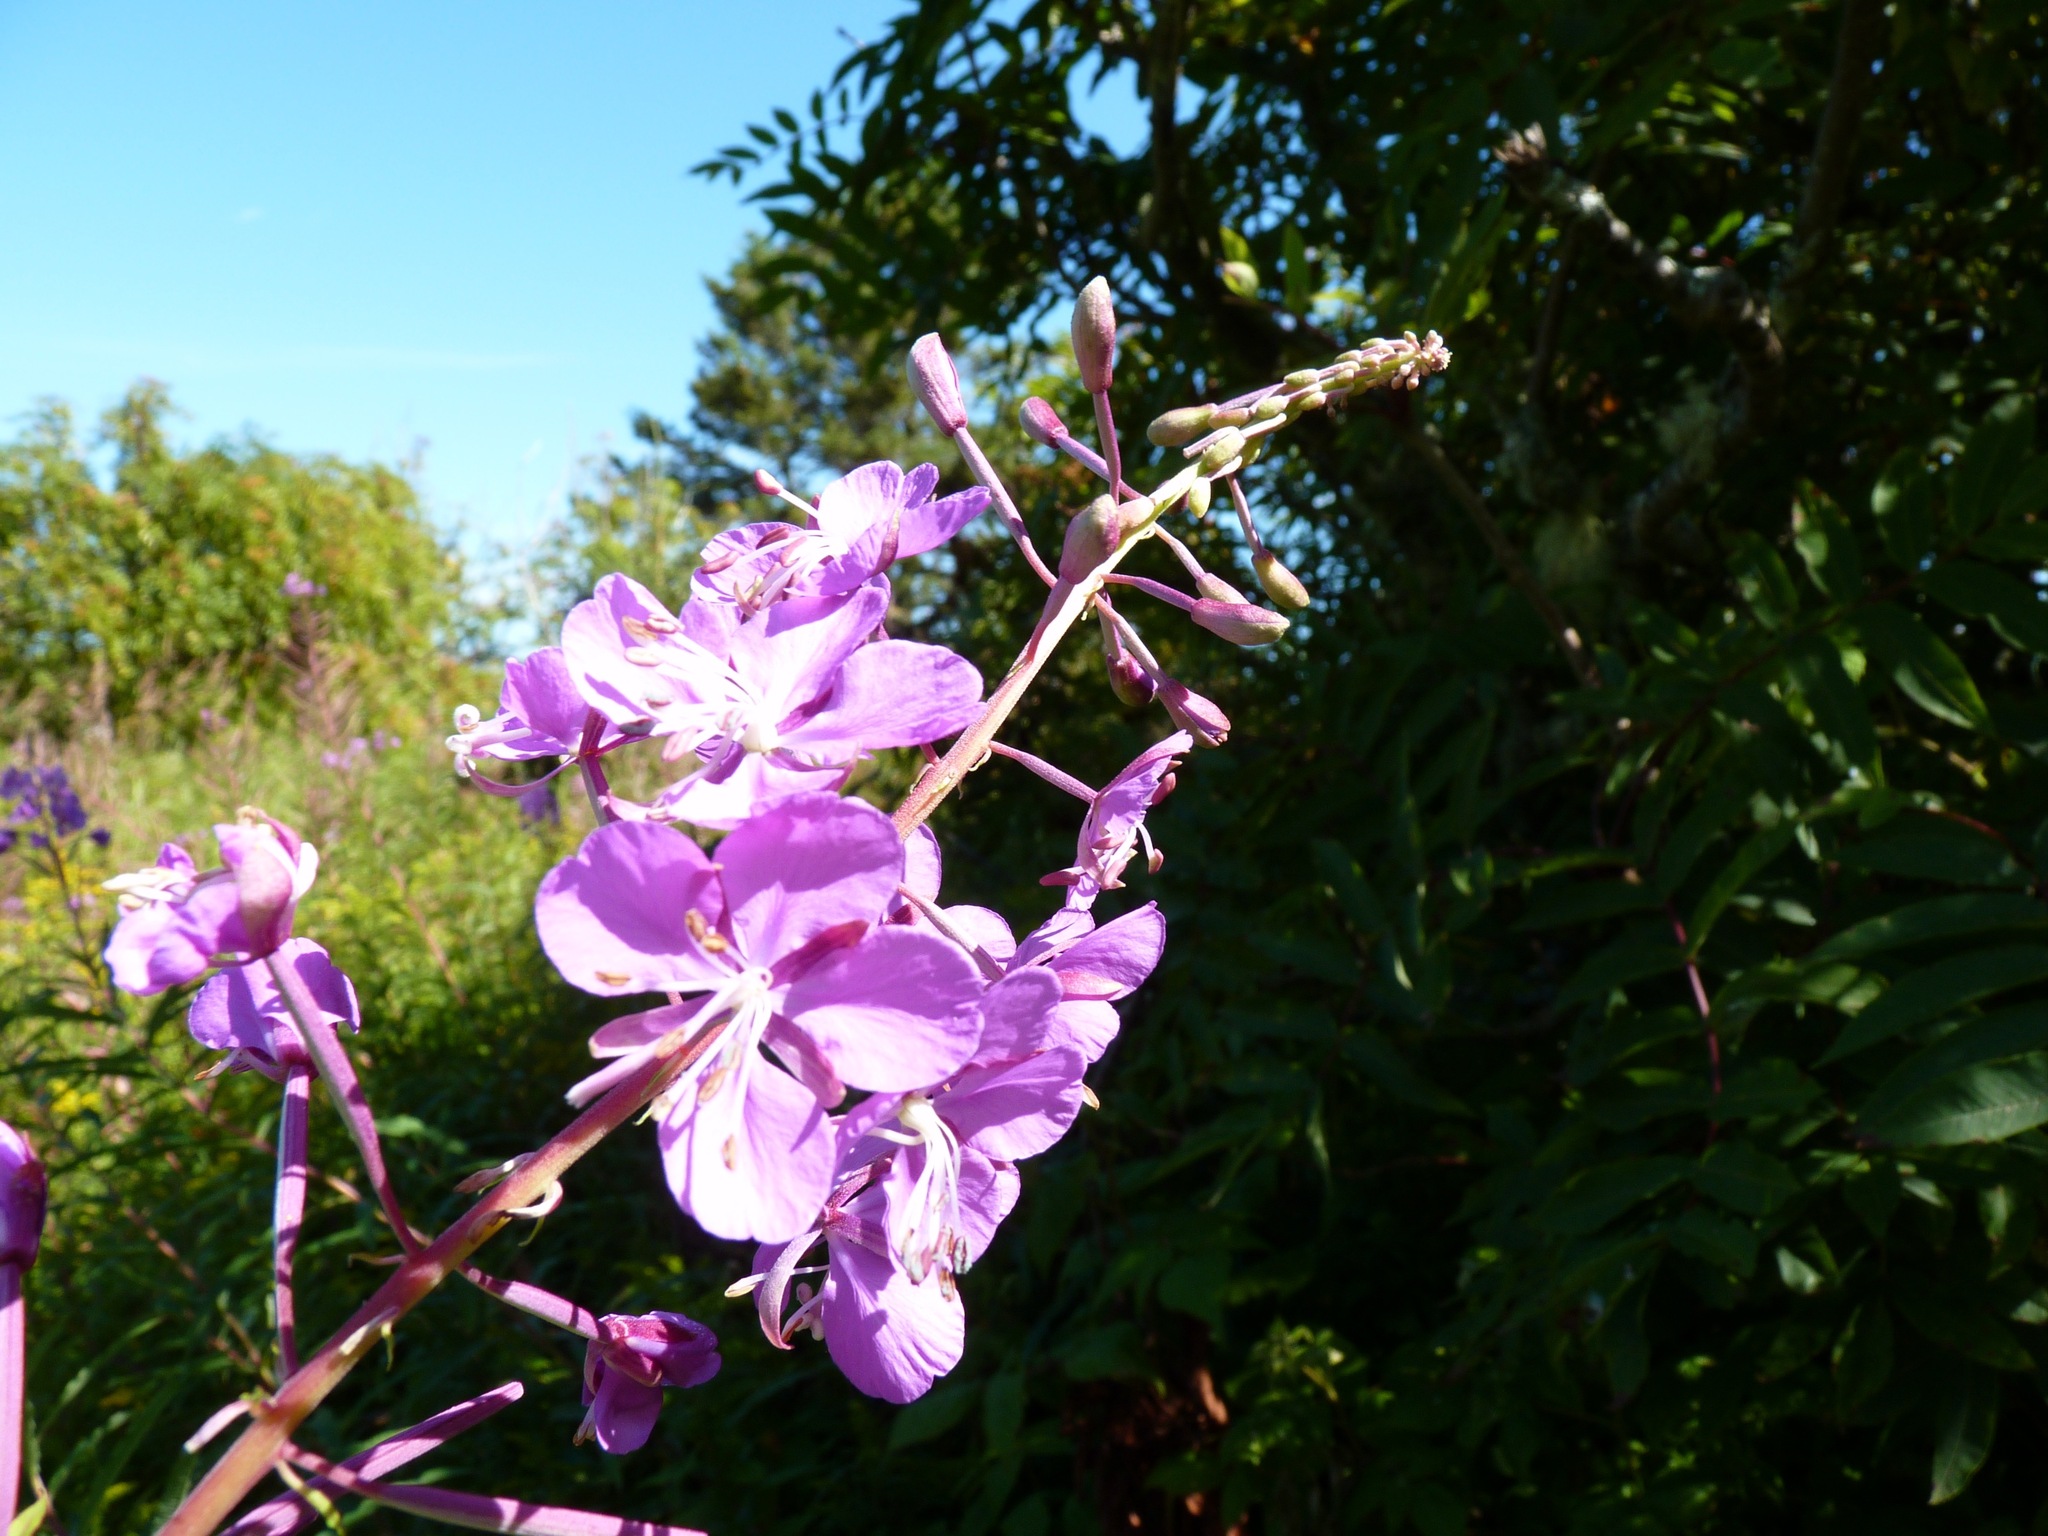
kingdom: Plantae
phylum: Tracheophyta
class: Magnoliopsida
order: Myrtales
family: Onagraceae
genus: Chamaenerion
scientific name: Chamaenerion angustifolium
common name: Fireweed
